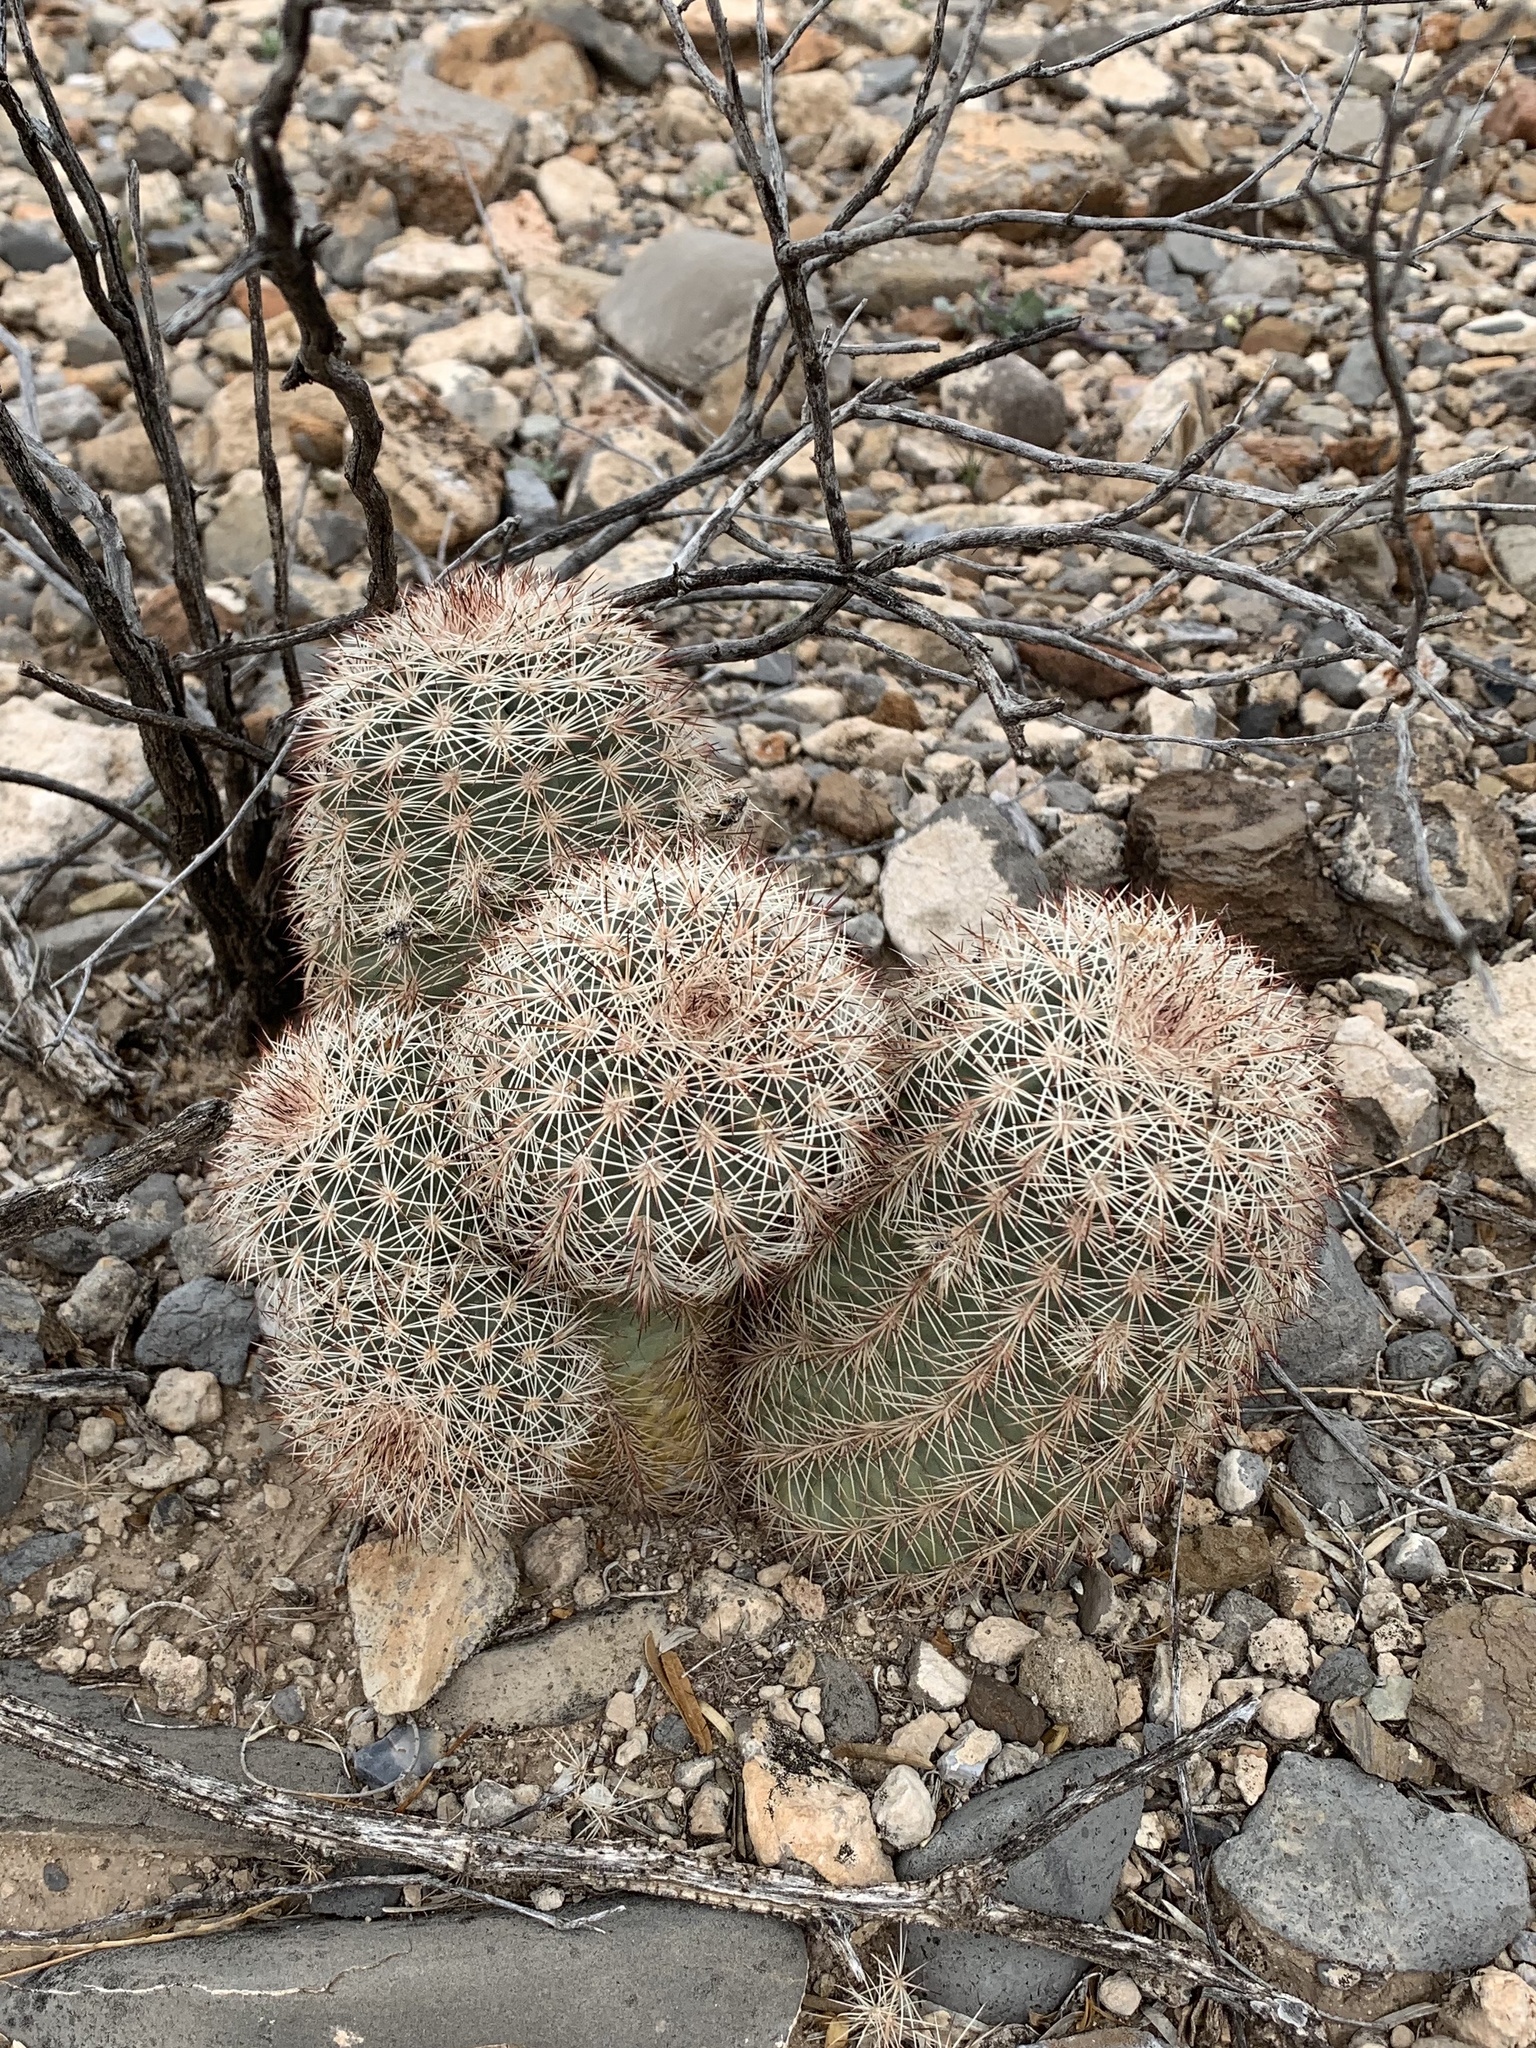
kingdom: Plantae
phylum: Tracheophyta
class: Magnoliopsida
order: Caryophyllales
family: Cactaceae
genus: Echinocereus
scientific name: Echinocereus dasyacanthus
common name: Spiny hedgehog cactus
